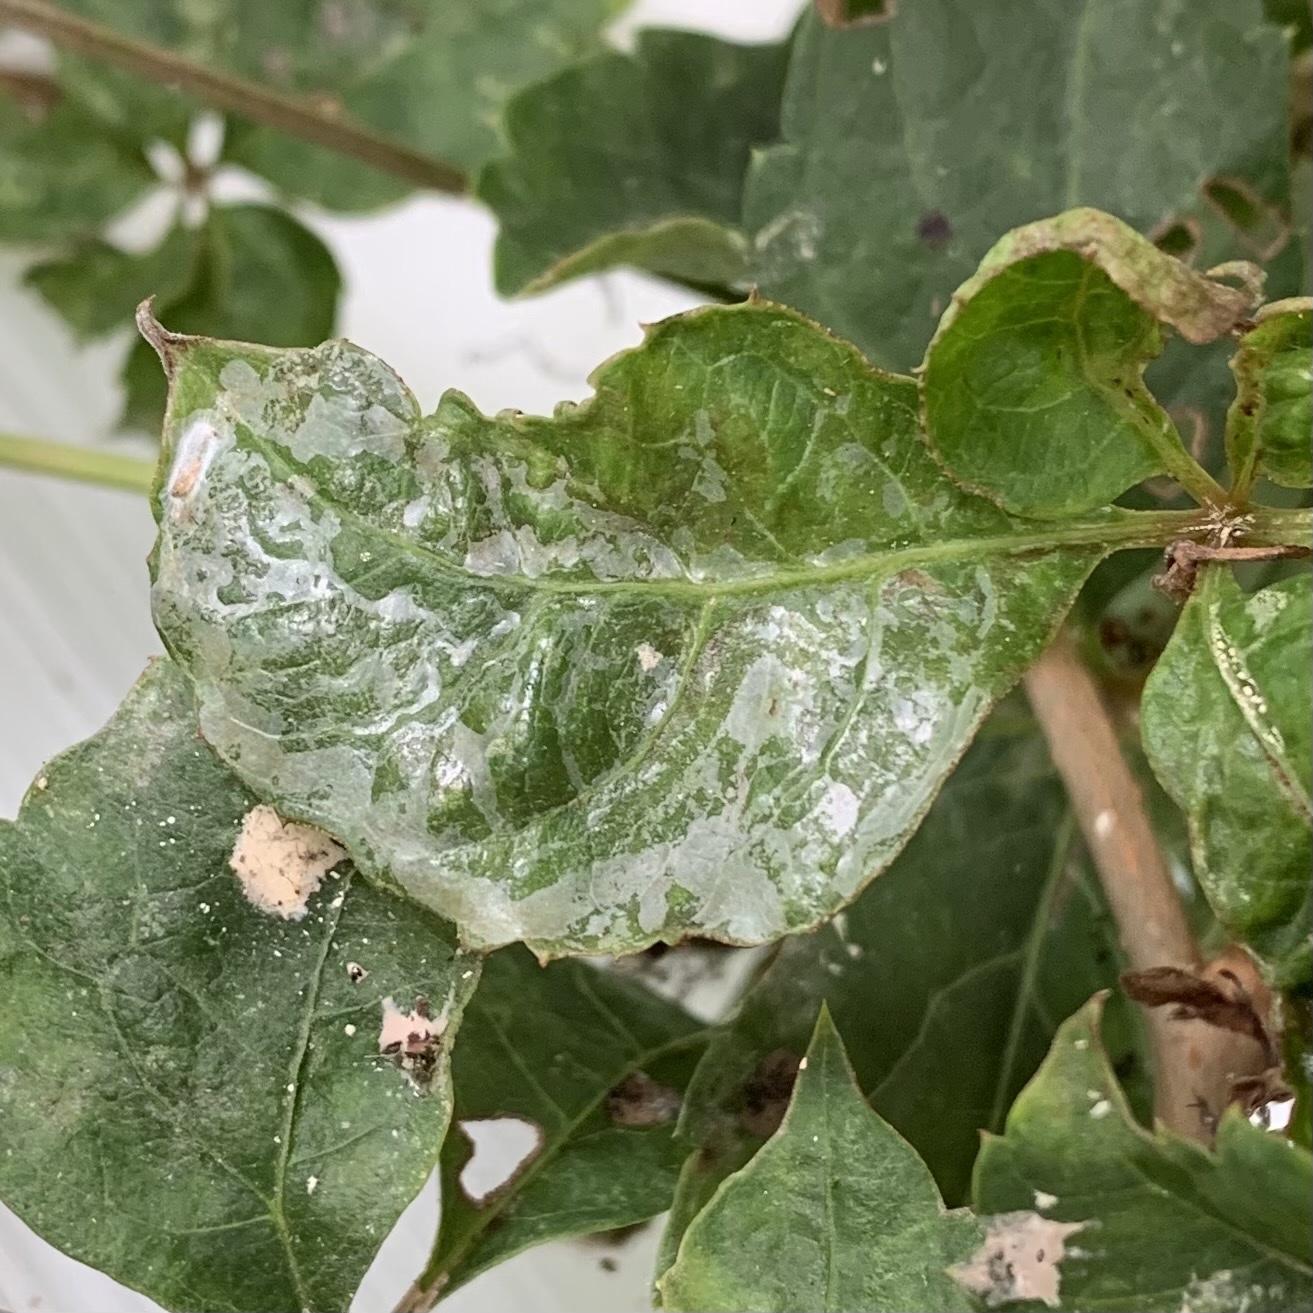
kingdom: Animalia
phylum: Arthropoda
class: Insecta
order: Lepidoptera
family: Gracillariidae
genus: Phyllocnistis
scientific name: Phyllocnistis vitegenella
